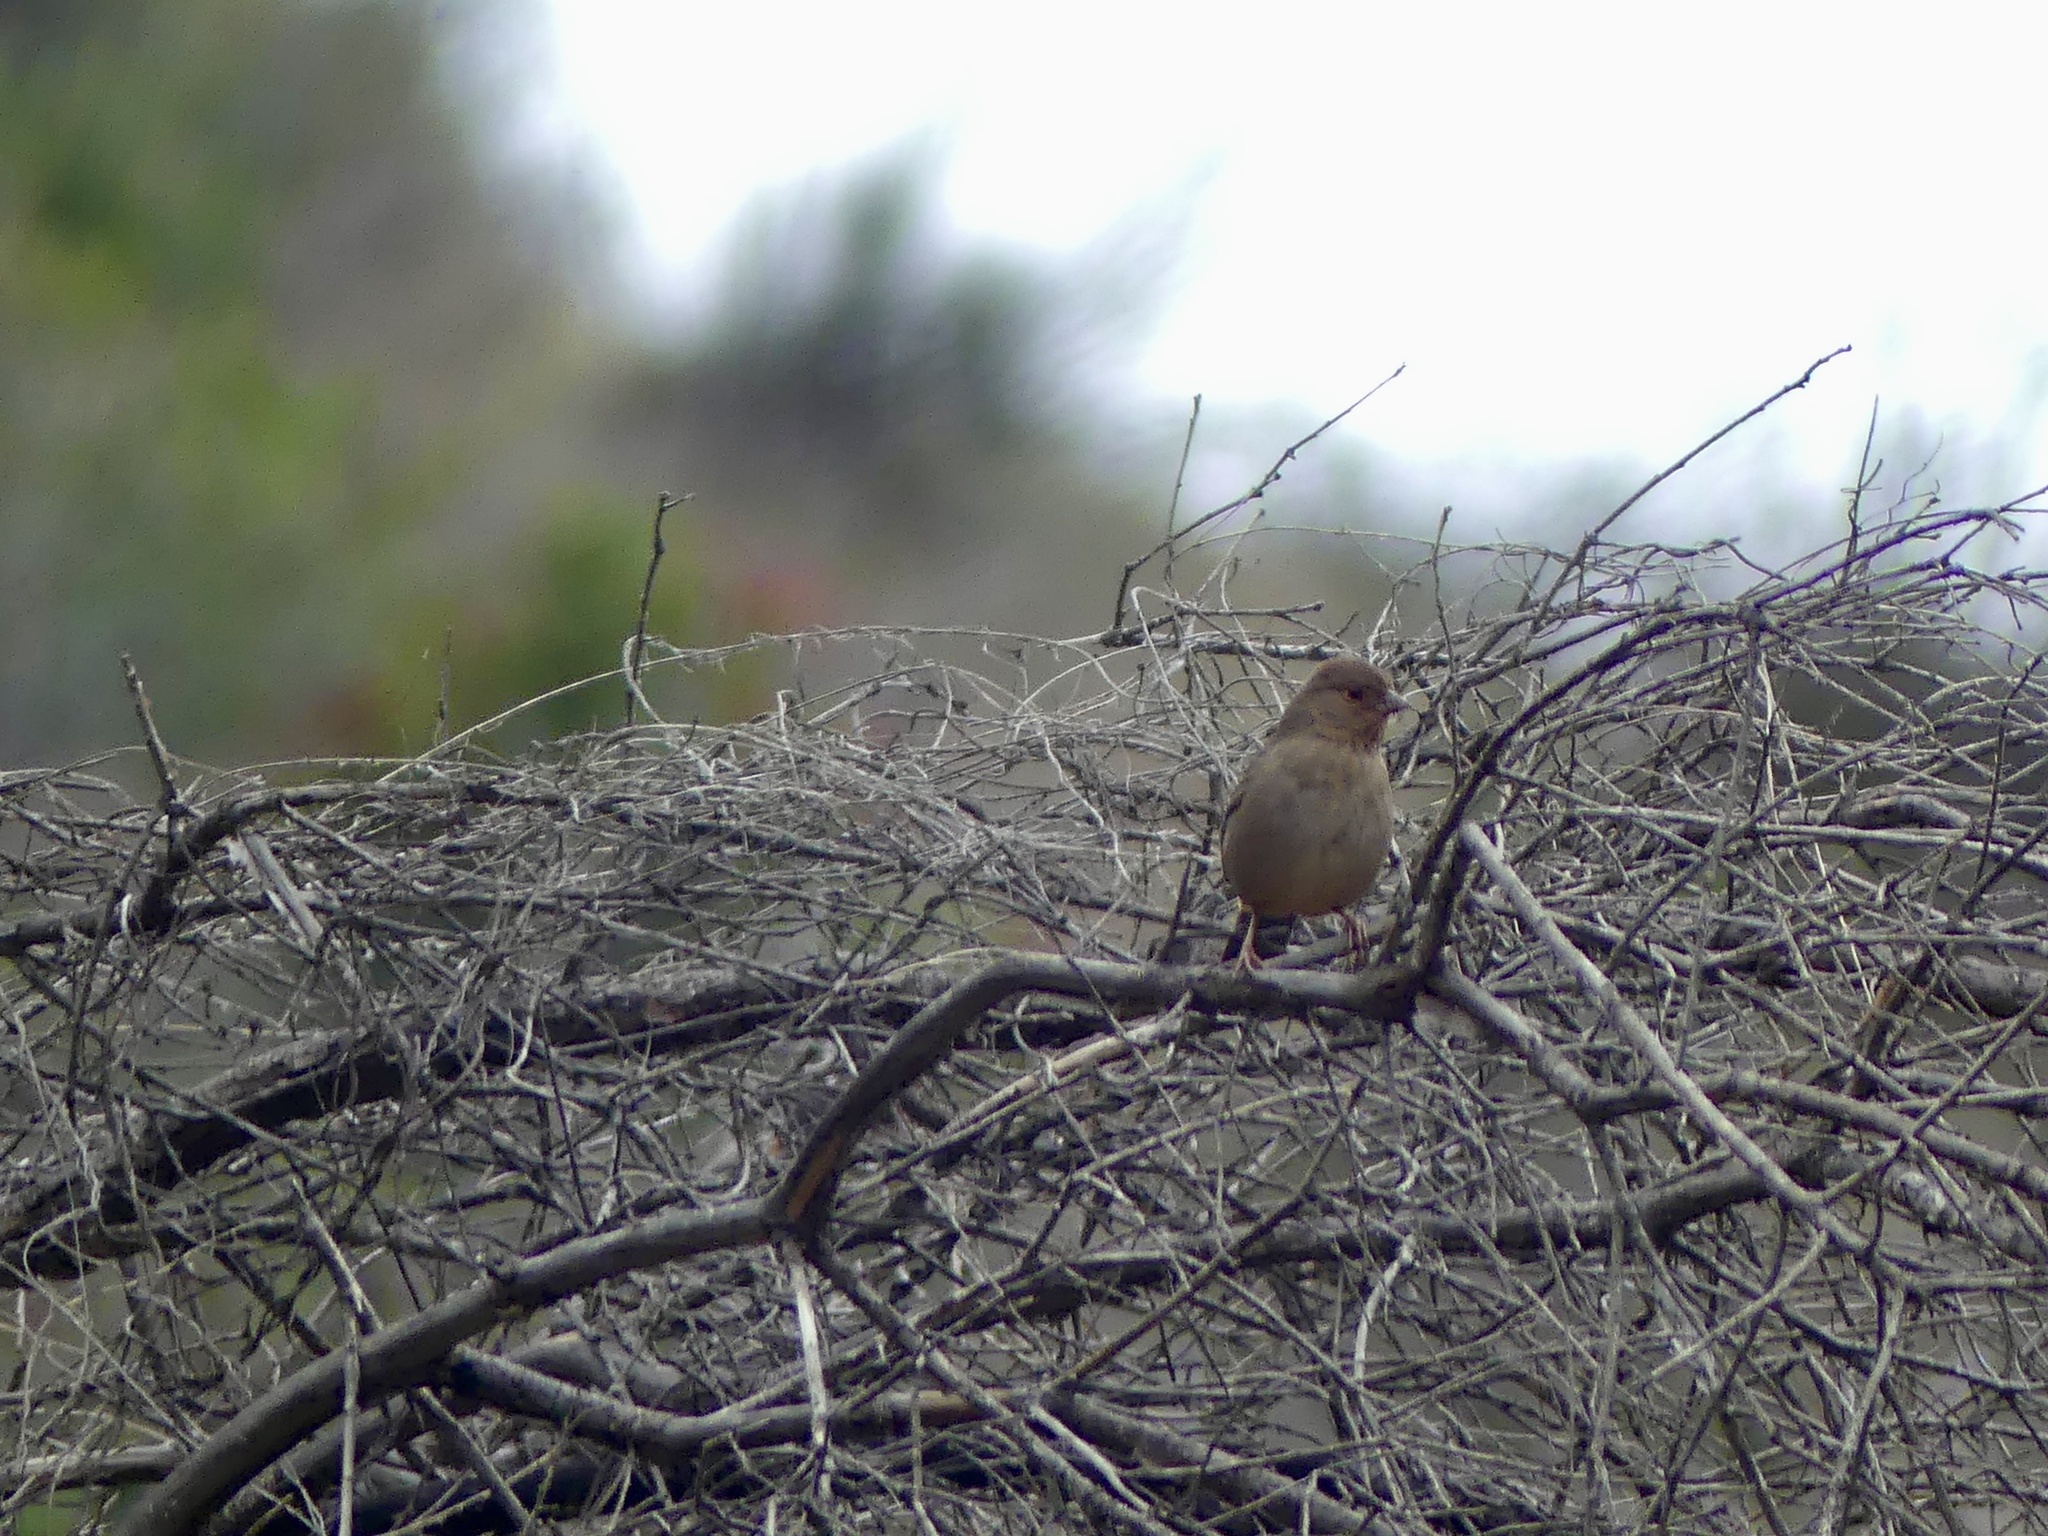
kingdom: Animalia
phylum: Chordata
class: Aves
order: Passeriformes
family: Passerellidae
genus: Melozone
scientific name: Melozone crissalis
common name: California towhee
